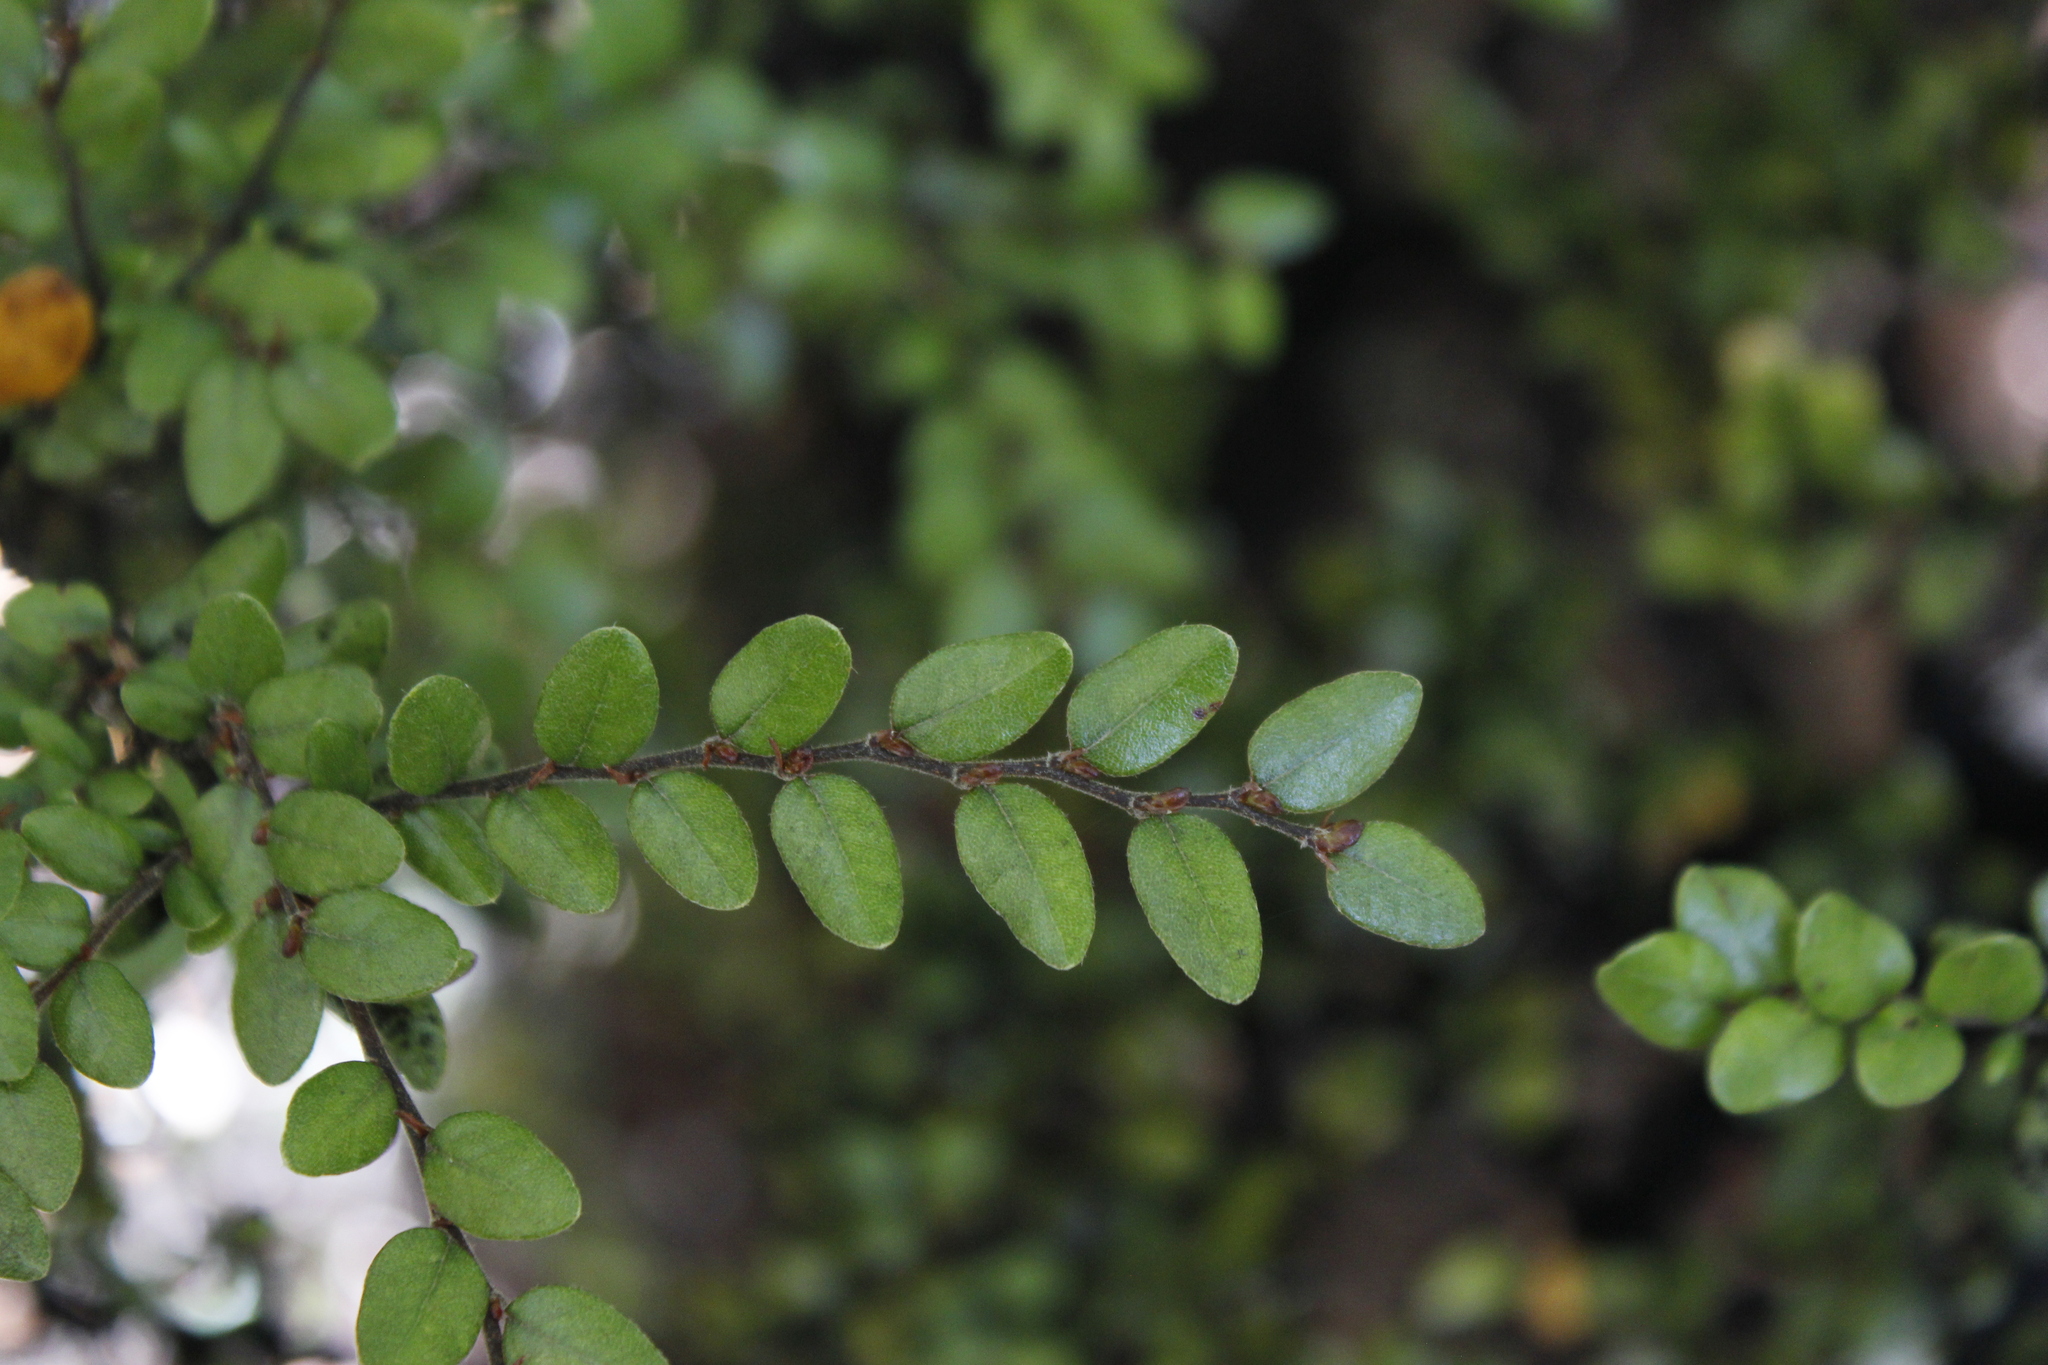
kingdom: Plantae
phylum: Tracheophyta
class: Magnoliopsida
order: Fagales
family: Nothofagaceae
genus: Nothofagus
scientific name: Nothofagus cliffortioides
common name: Mountain beech
